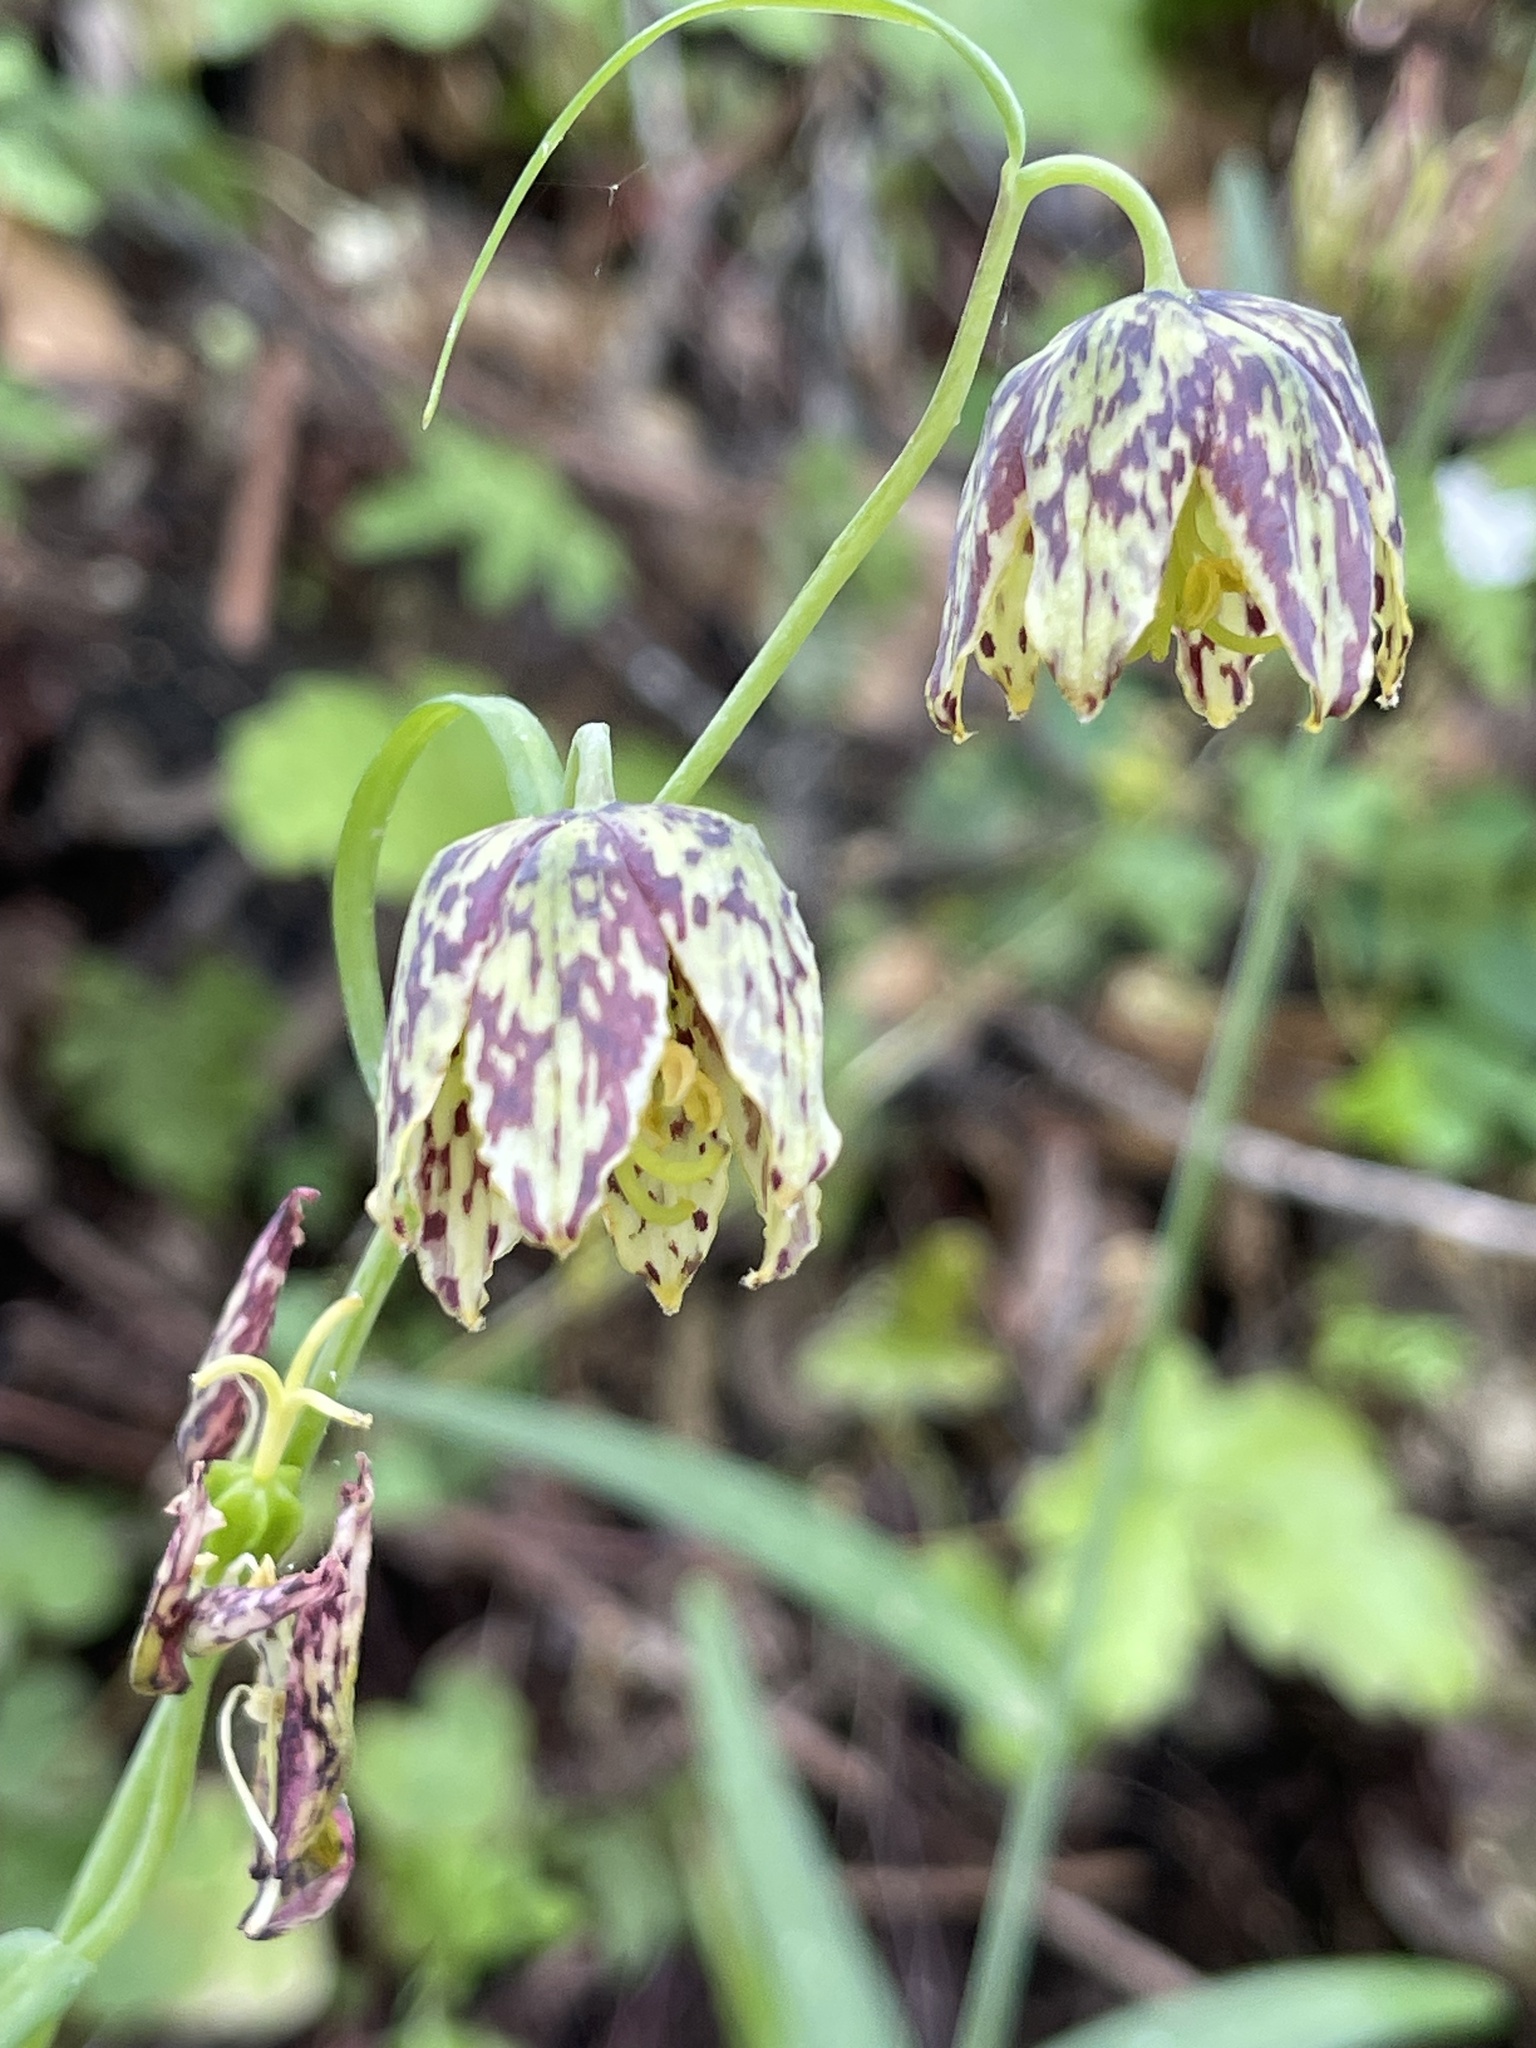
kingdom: Plantae
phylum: Tracheophyta
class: Liliopsida
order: Liliales
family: Liliaceae
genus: Fritillaria
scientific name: Fritillaria affinis
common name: Ojai fritillary
